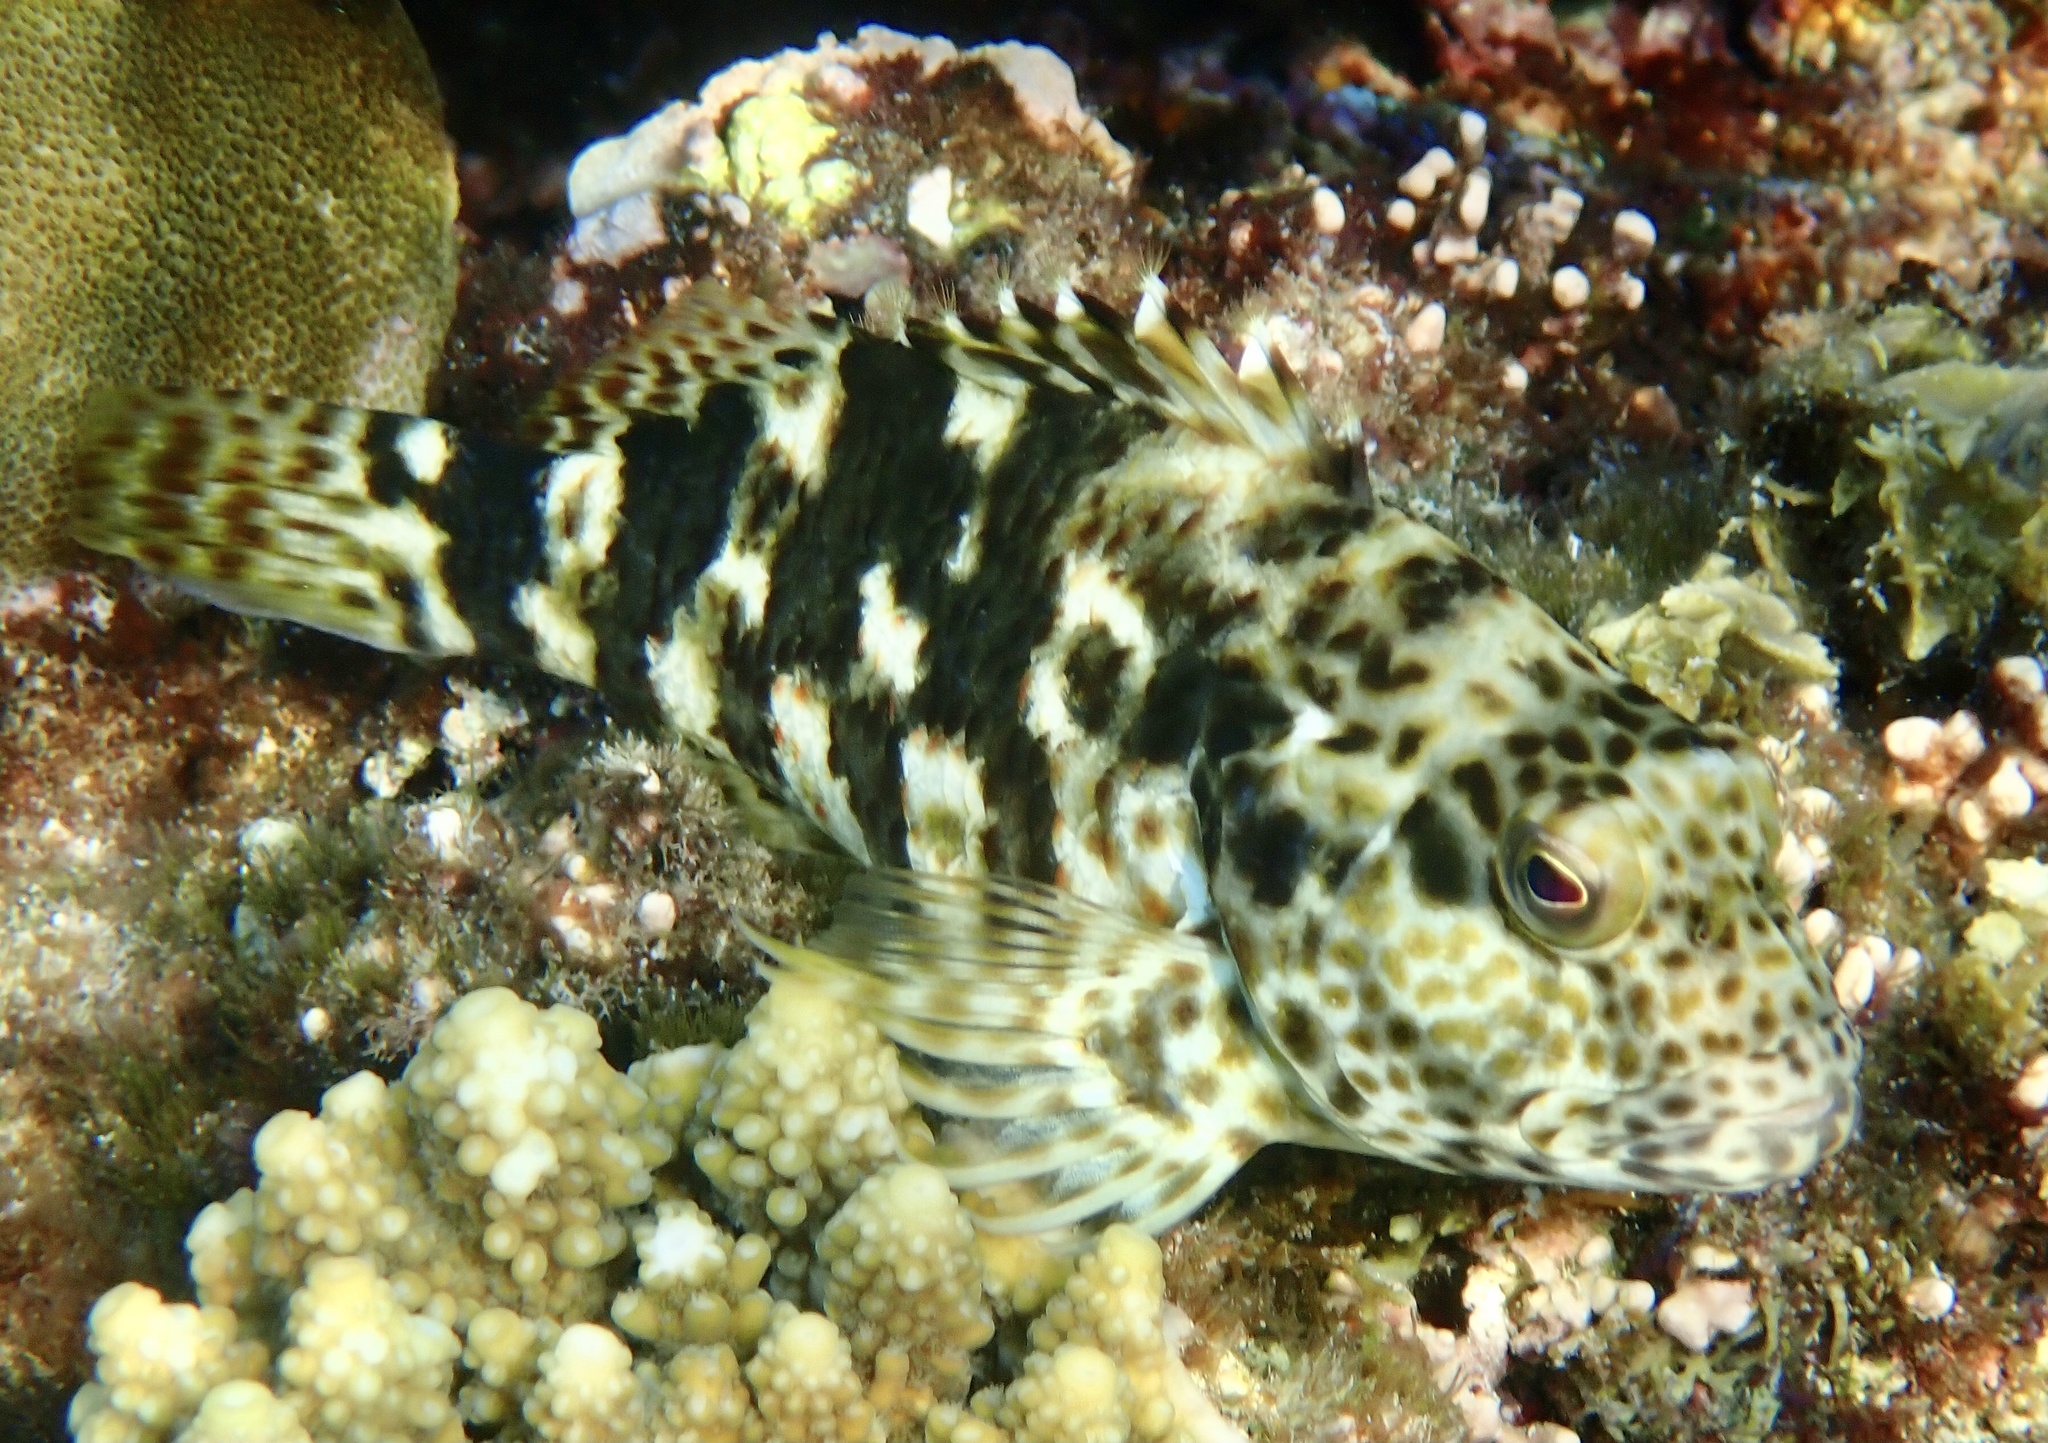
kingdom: Animalia
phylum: Chordata
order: Perciformes
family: Cirrhitidae
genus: Cirrhitus
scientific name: Cirrhitus pinnulatus
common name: Stocky hawkfish
